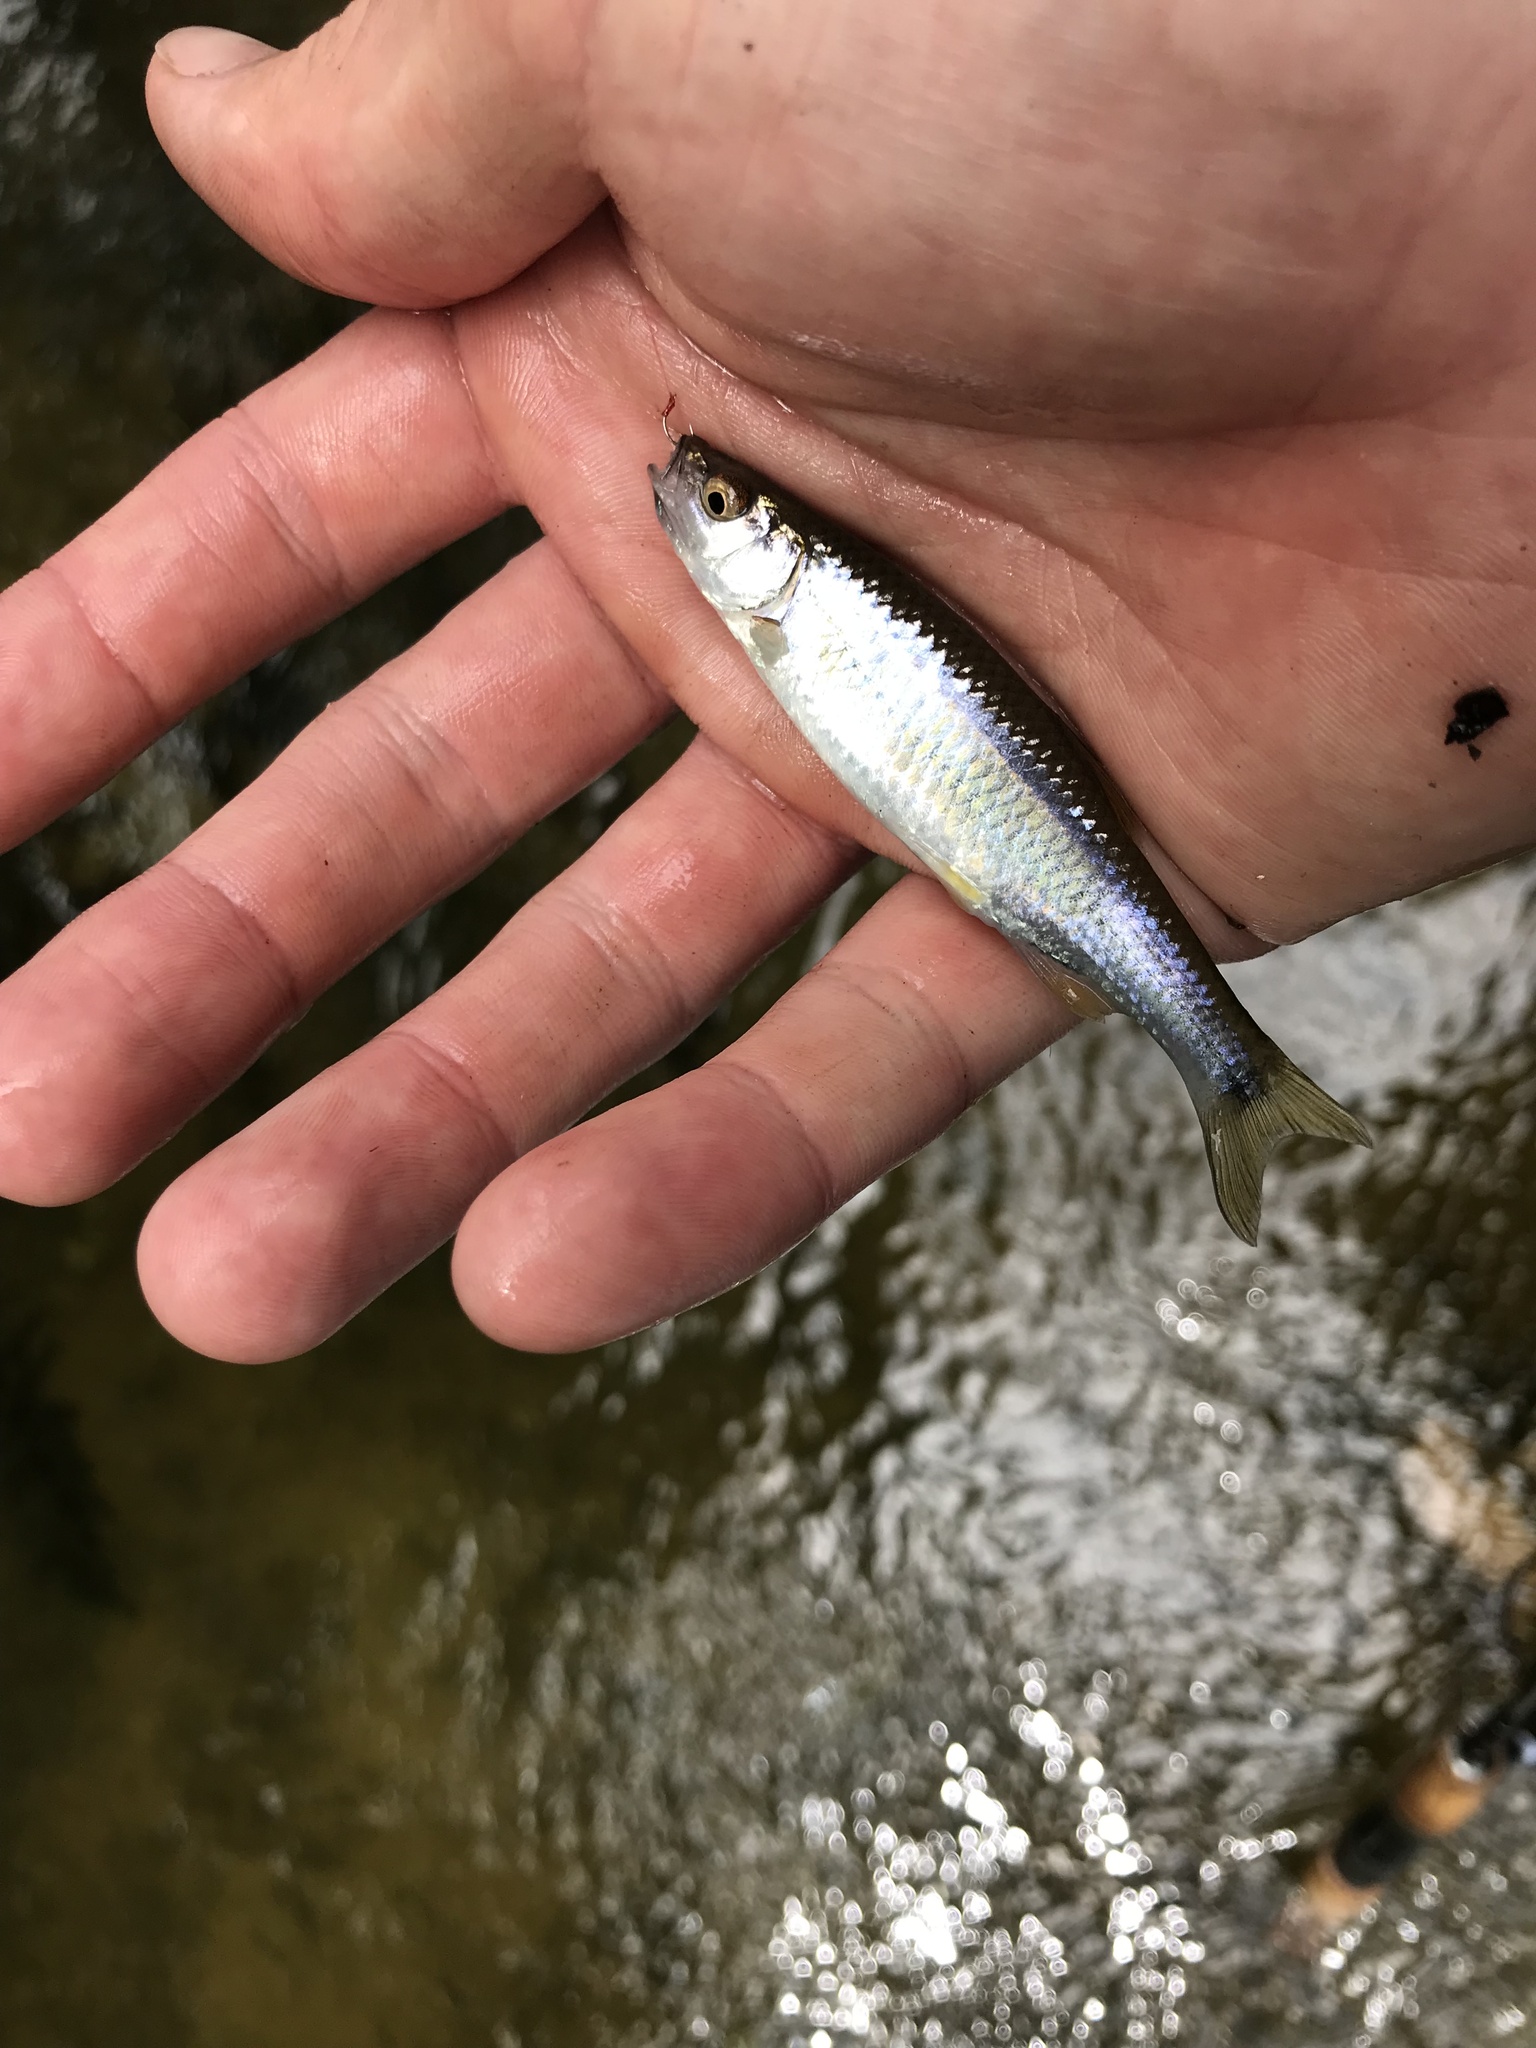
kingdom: Animalia
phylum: Chordata
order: Cypriniformes
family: Cyprinidae
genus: Cyprinella
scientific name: Cyprinella spiloptera
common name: Spotfin shiner
